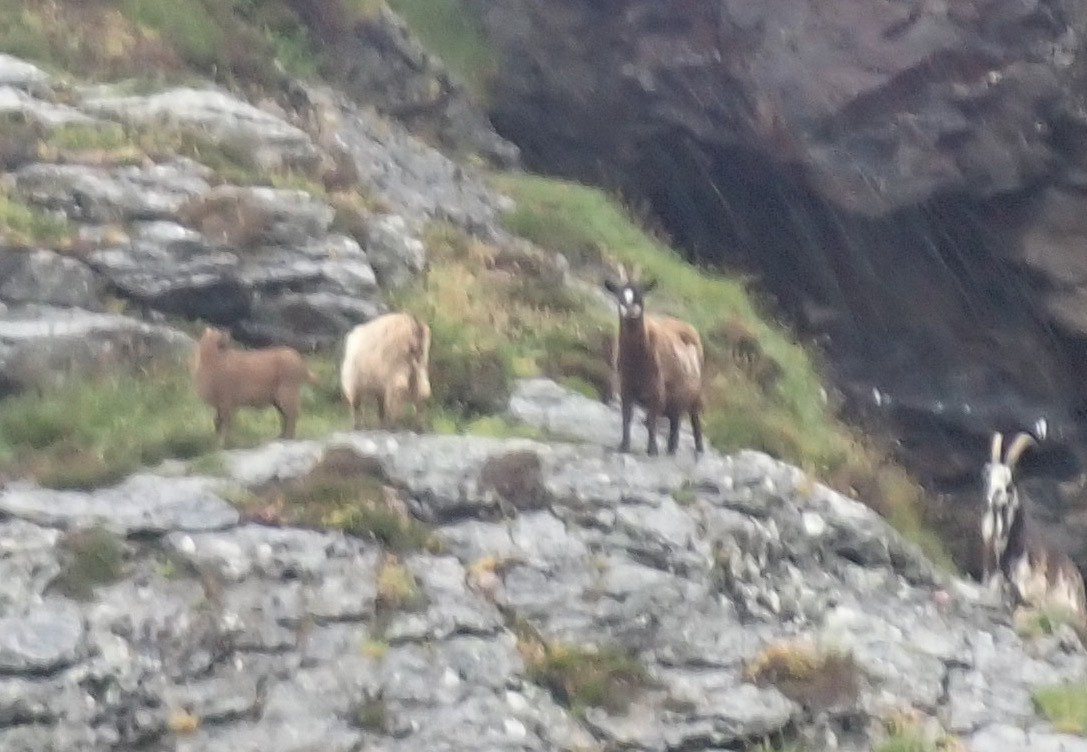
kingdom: Animalia
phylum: Chordata
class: Mammalia
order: Artiodactyla
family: Bovidae
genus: Capra
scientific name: Capra hircus
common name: Domestic goat
